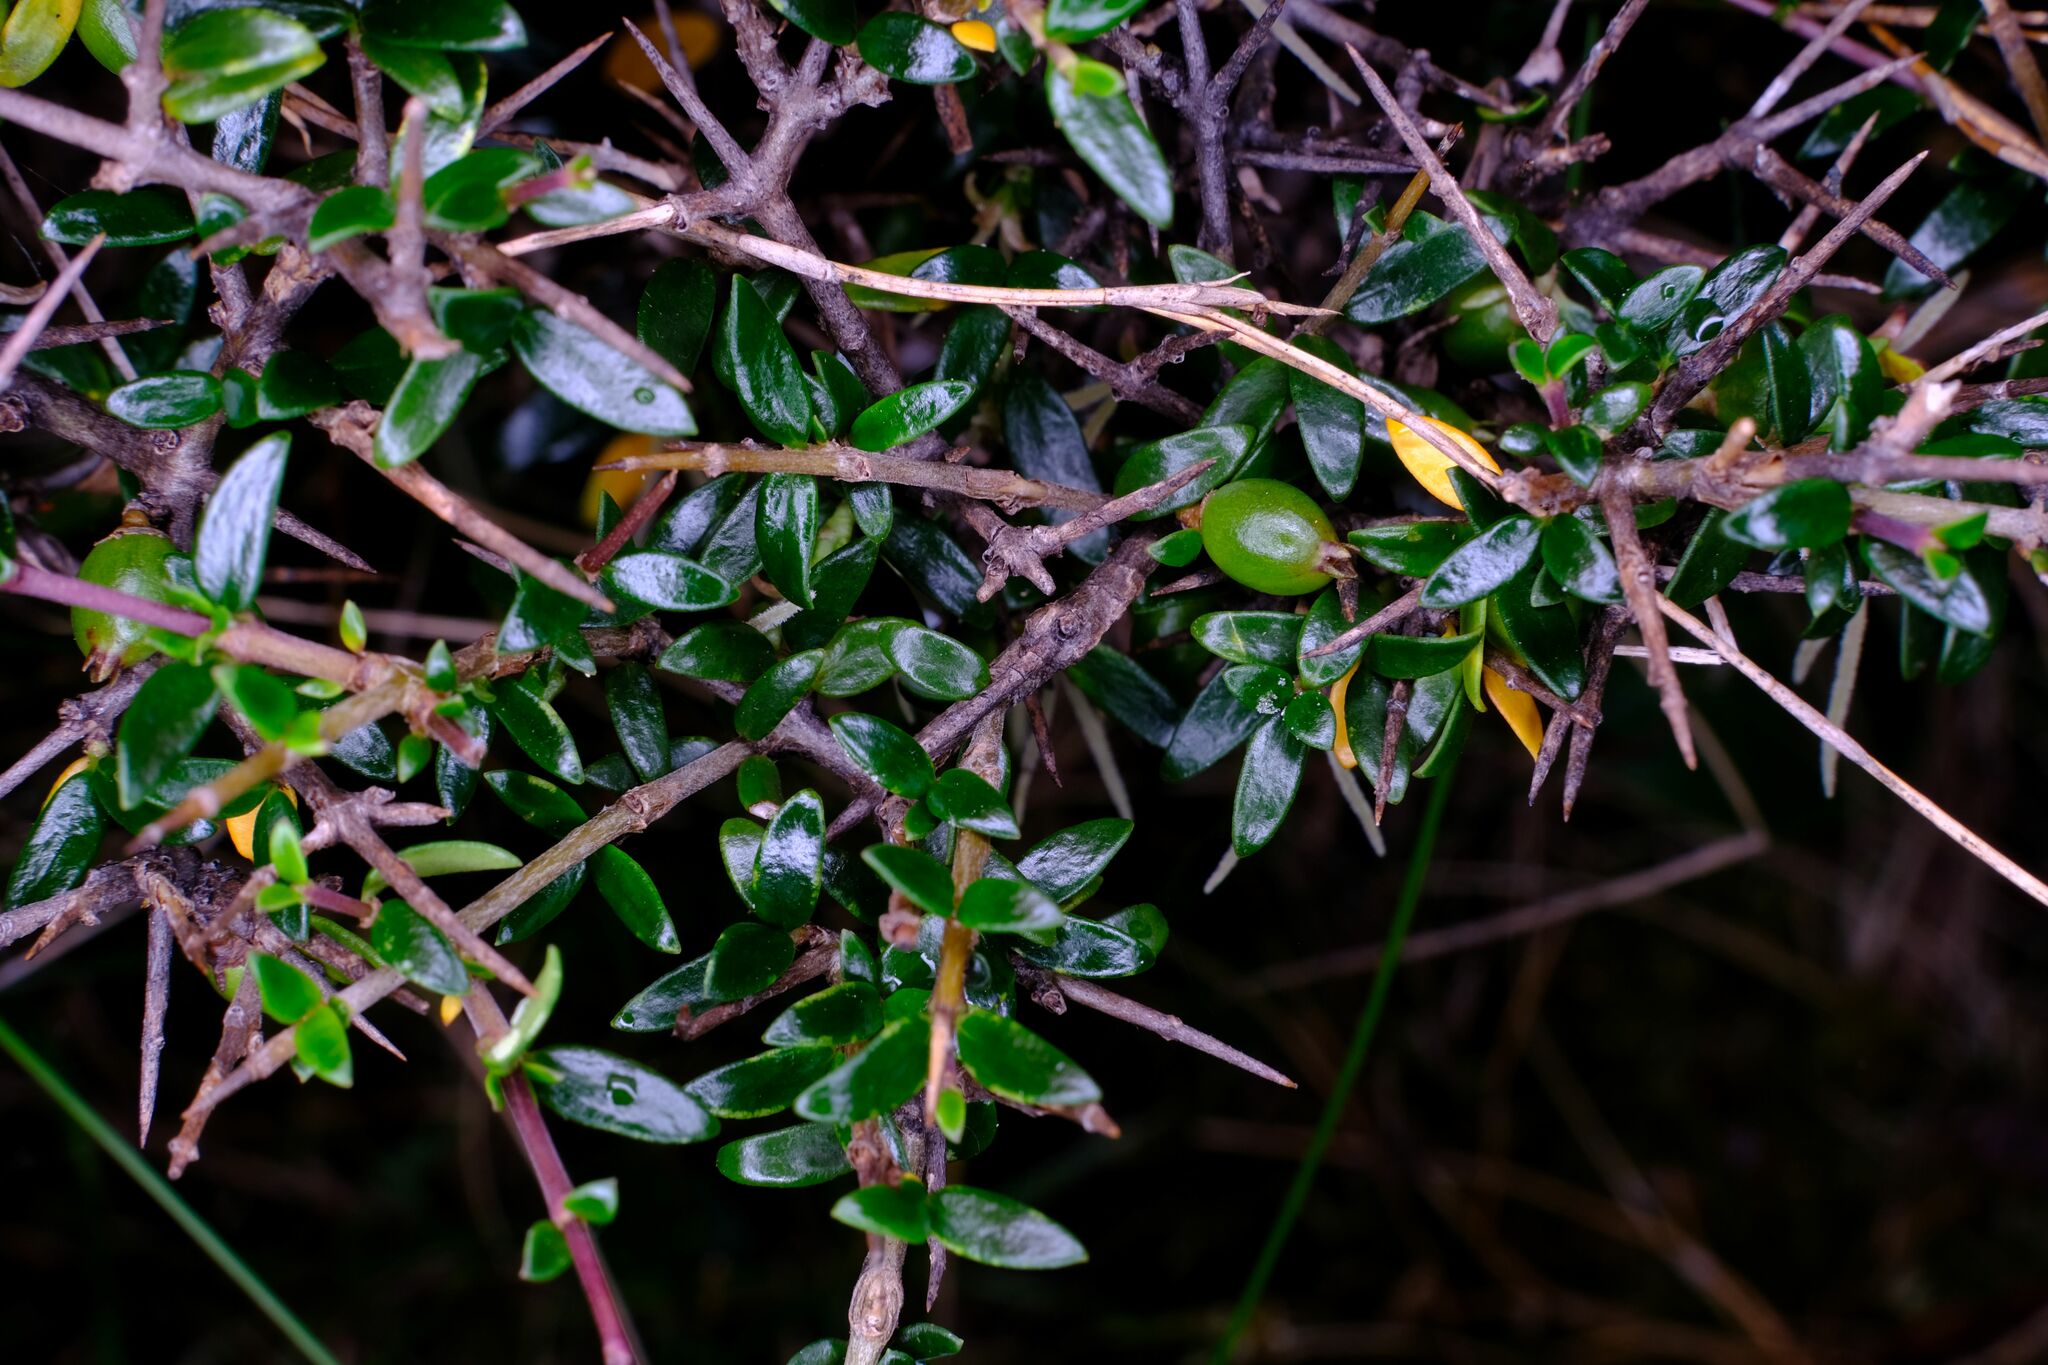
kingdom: Plantae
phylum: Tracheophyta
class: Magnoliopsida
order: Gentianales
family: Rubiaceae
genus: Coprosma
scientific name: Coprosma nitida
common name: Shining coprosma
